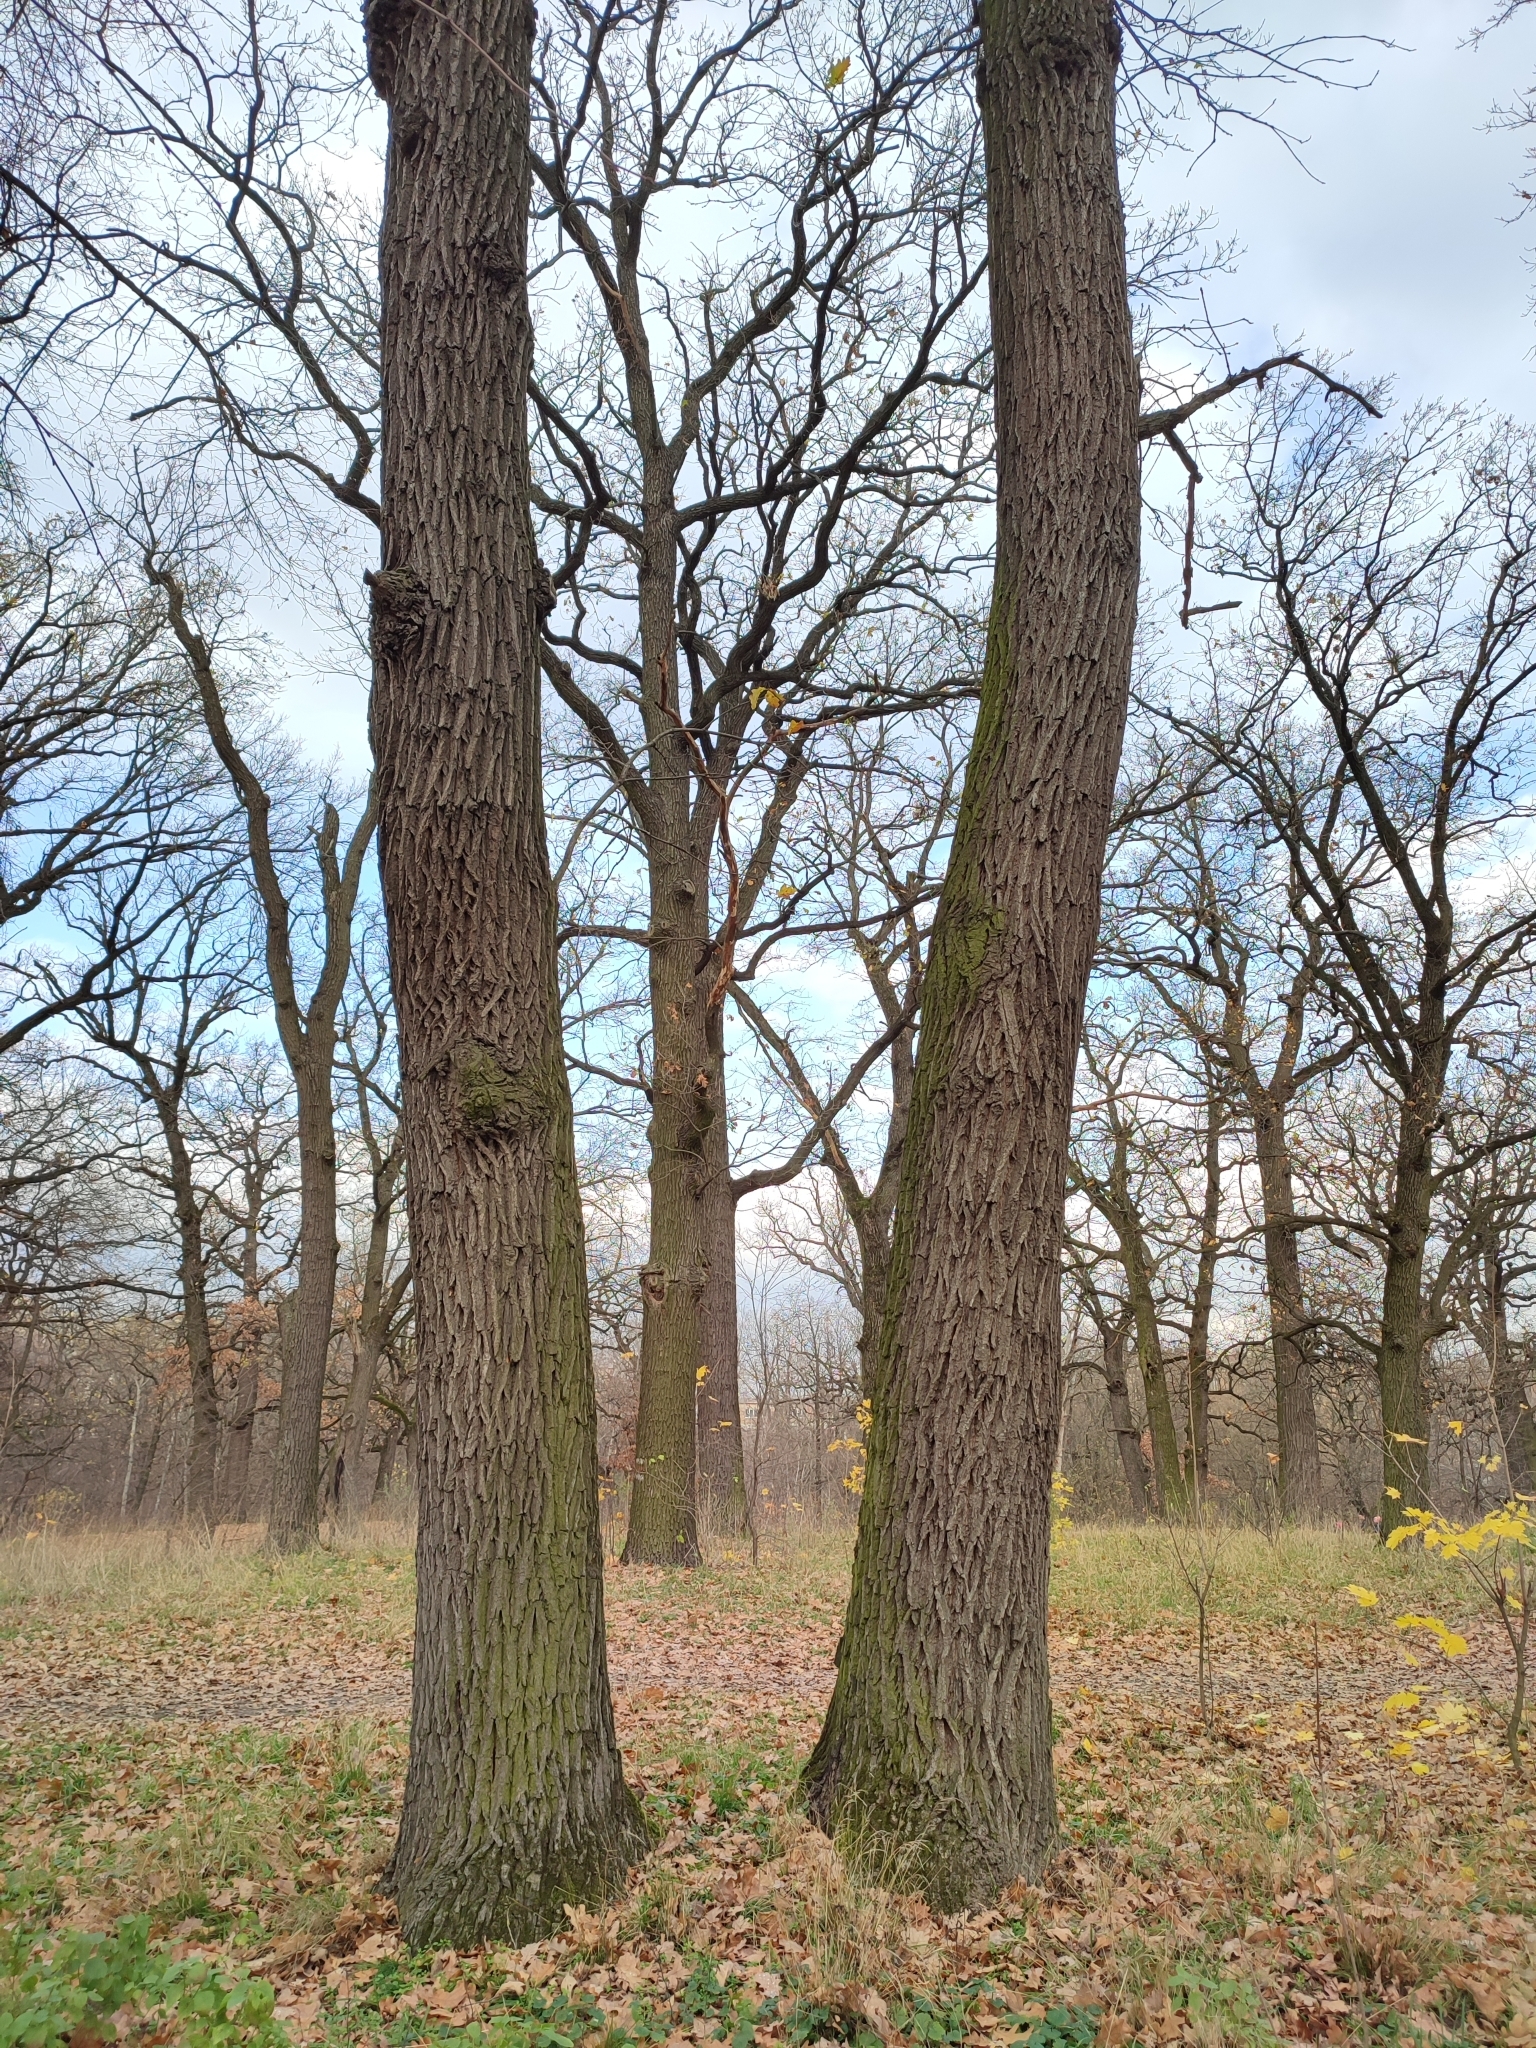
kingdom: Plantae
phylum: Tracheophyta
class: Magnoliopsida
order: Fagales
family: Fagaceae
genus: Quercus
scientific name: Quercus robur
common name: Pedunculate oak
